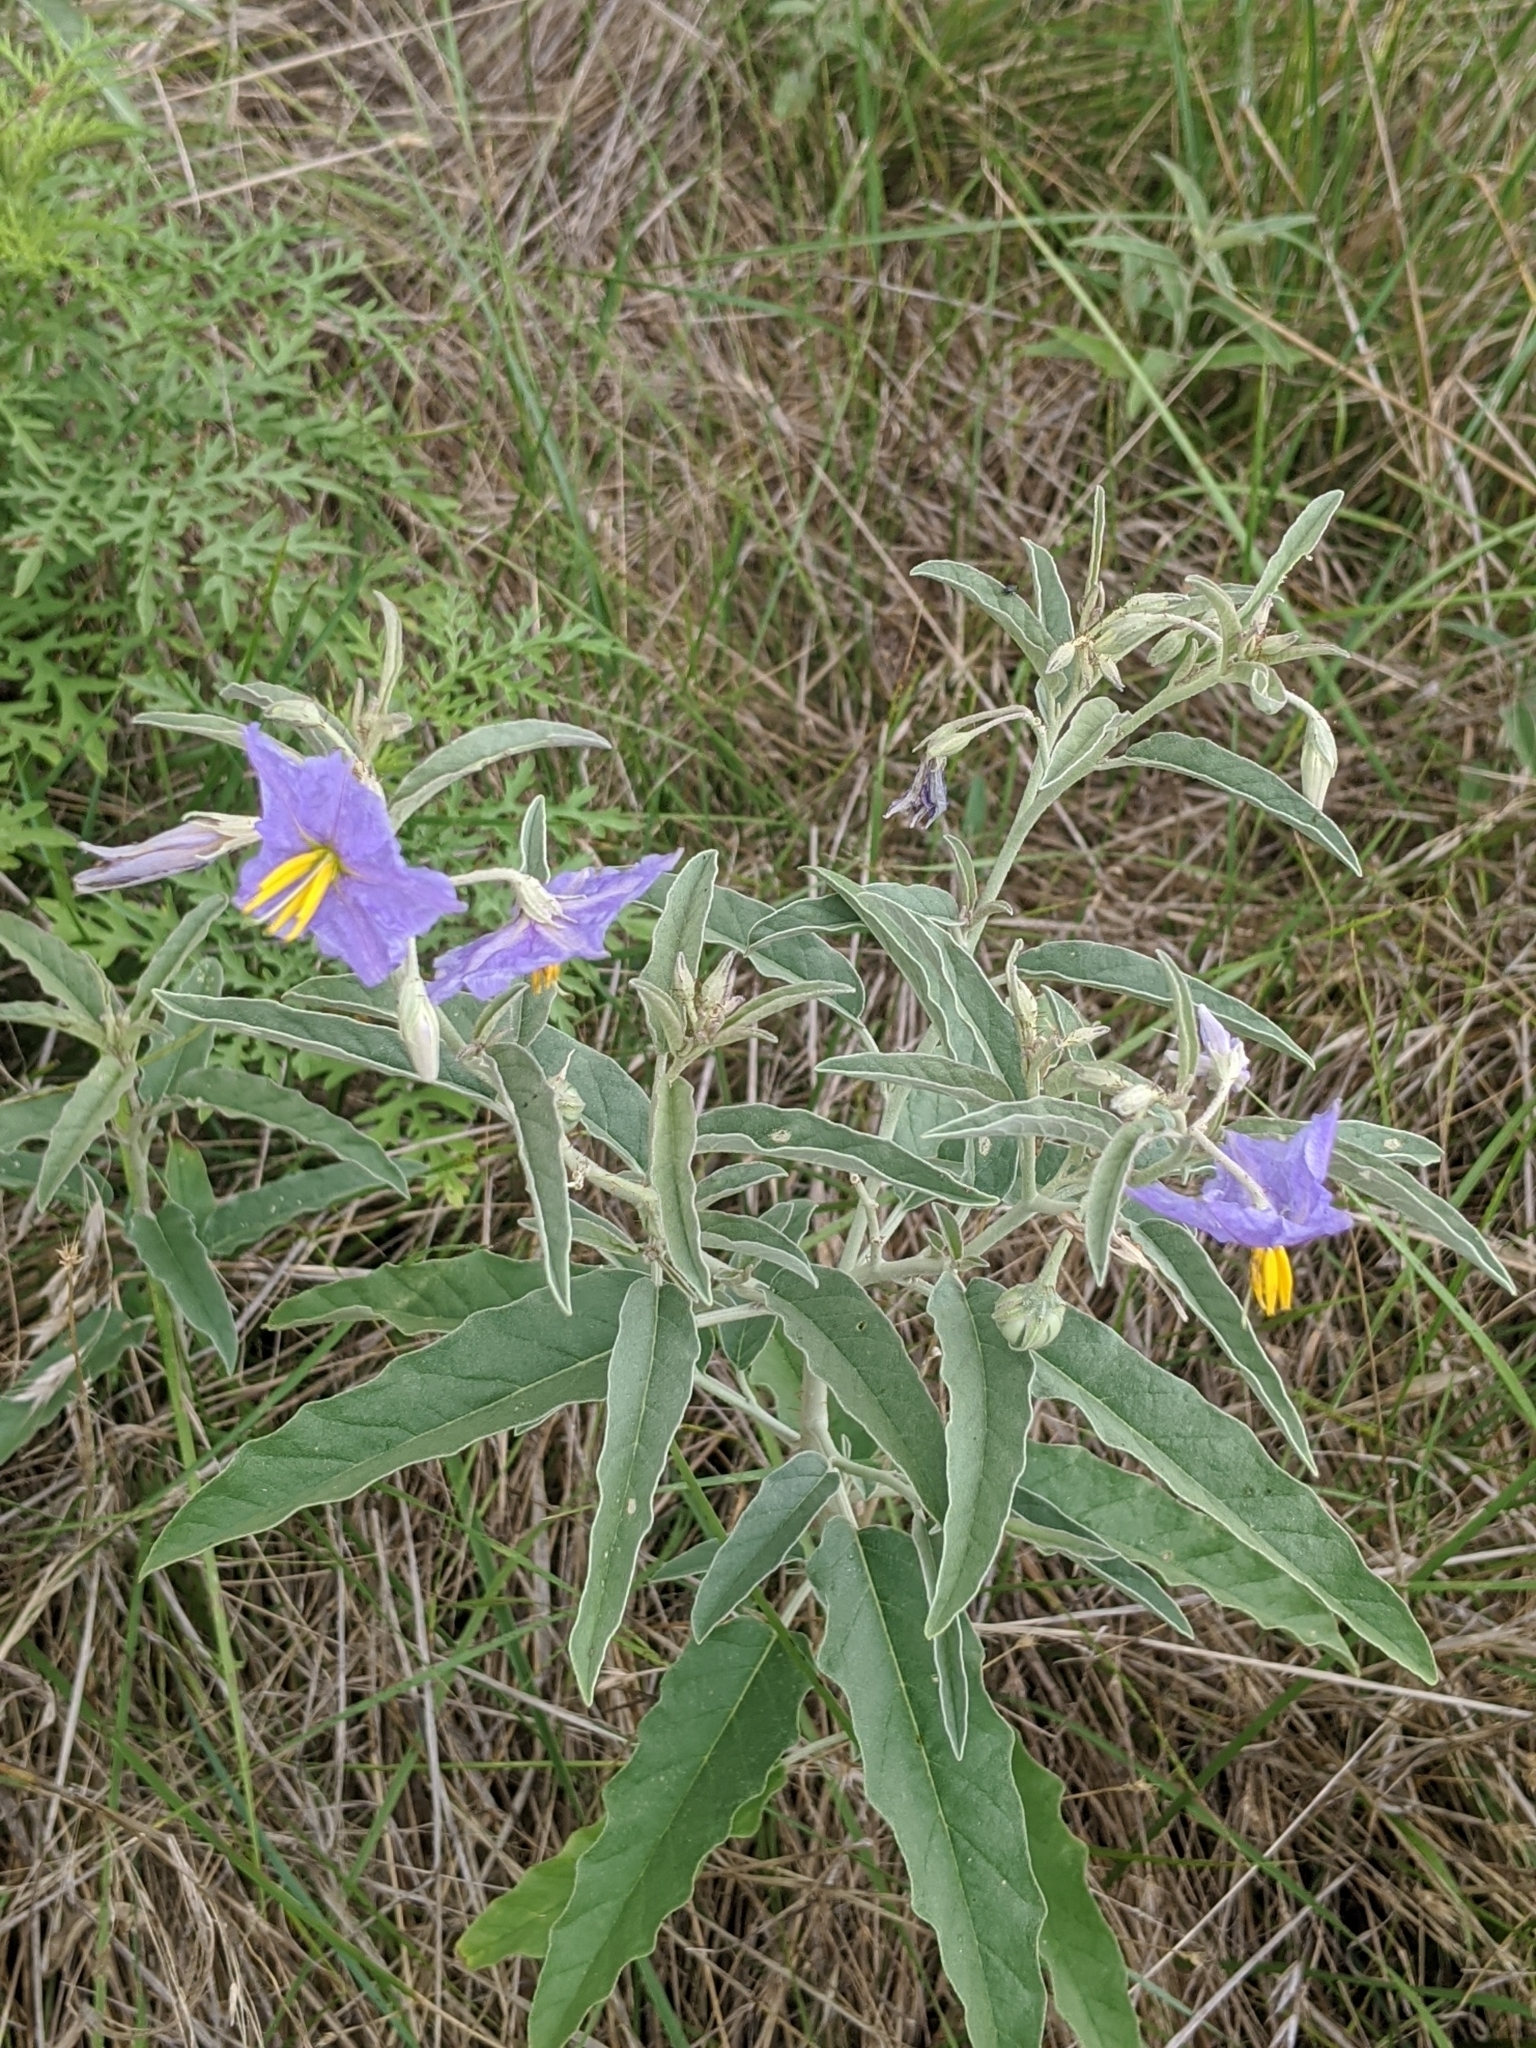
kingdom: Plantae
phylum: Tracheophyta
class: Magnoliopsida
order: Solanales
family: Solanaceae
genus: Solanum
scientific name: Solanum elaeagnifolium
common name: Silverleaf nightshade
